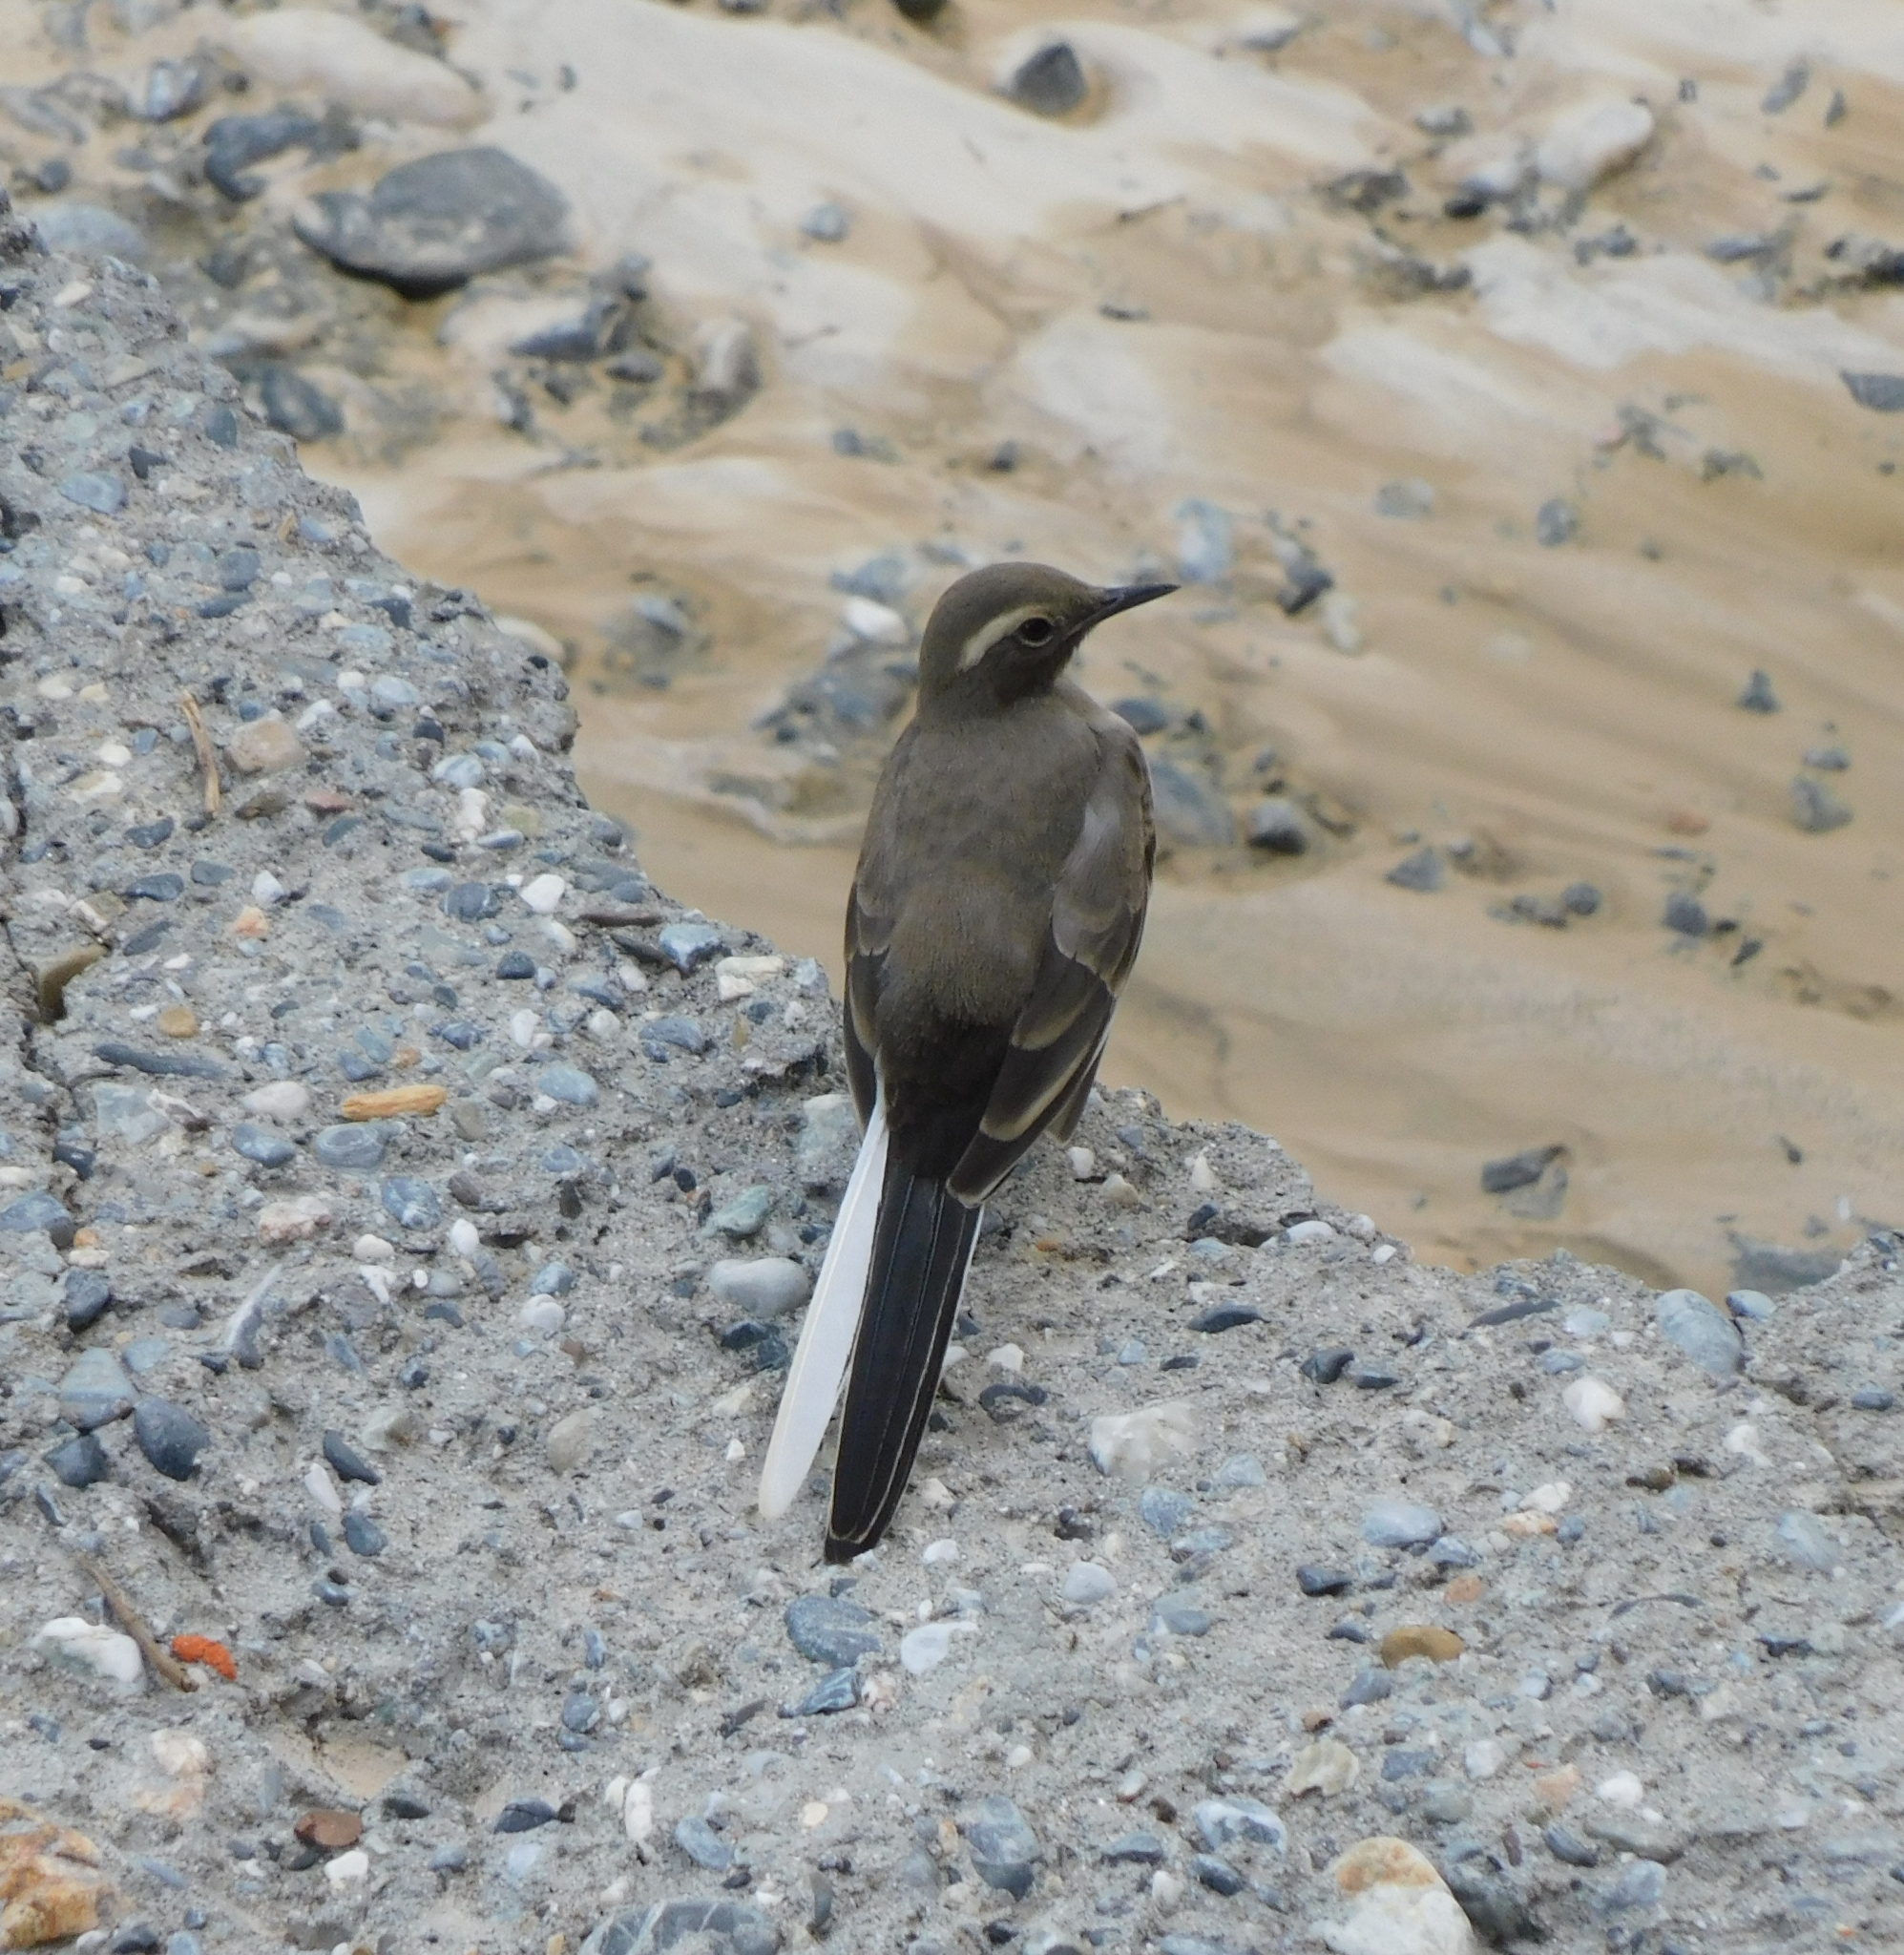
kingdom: Animalia
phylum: Chordata
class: Aves
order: Passeriformes
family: Motacillidae
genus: Motacilla
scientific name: Motacilla maderaspatensis
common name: White-browed wagtail
